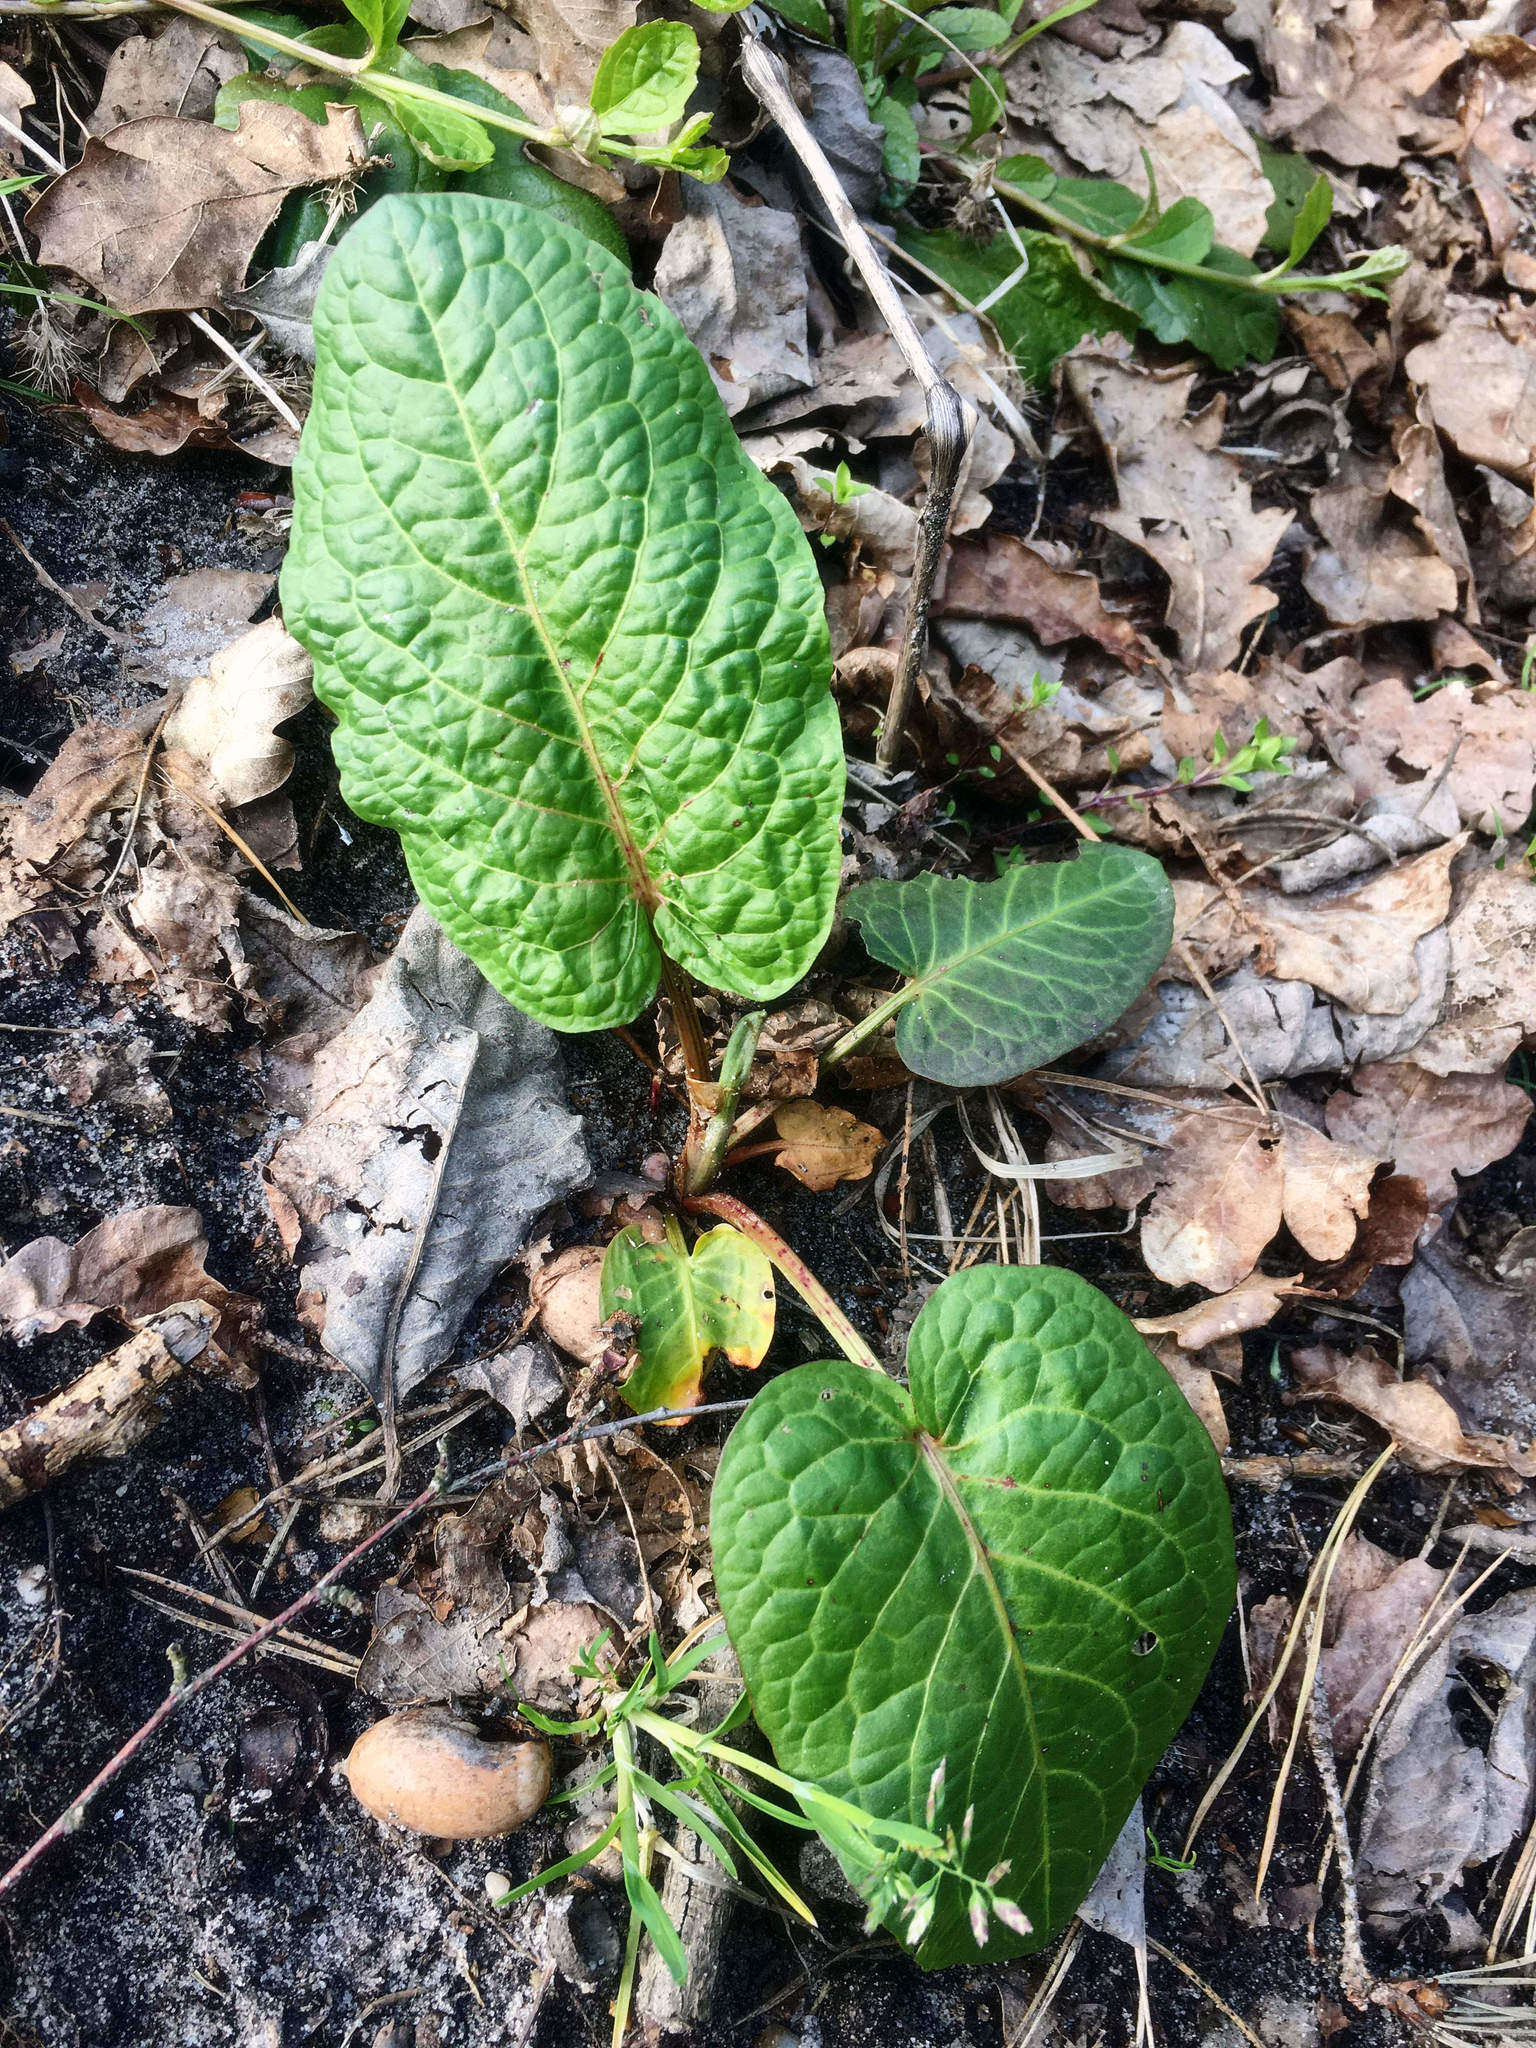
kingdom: Plantae
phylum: Tracheophyta
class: Magnoliopsida
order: Caryophyllales
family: Polygonaceae
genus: Rumex
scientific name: Rumex obtusifolius
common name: Bitter dock
